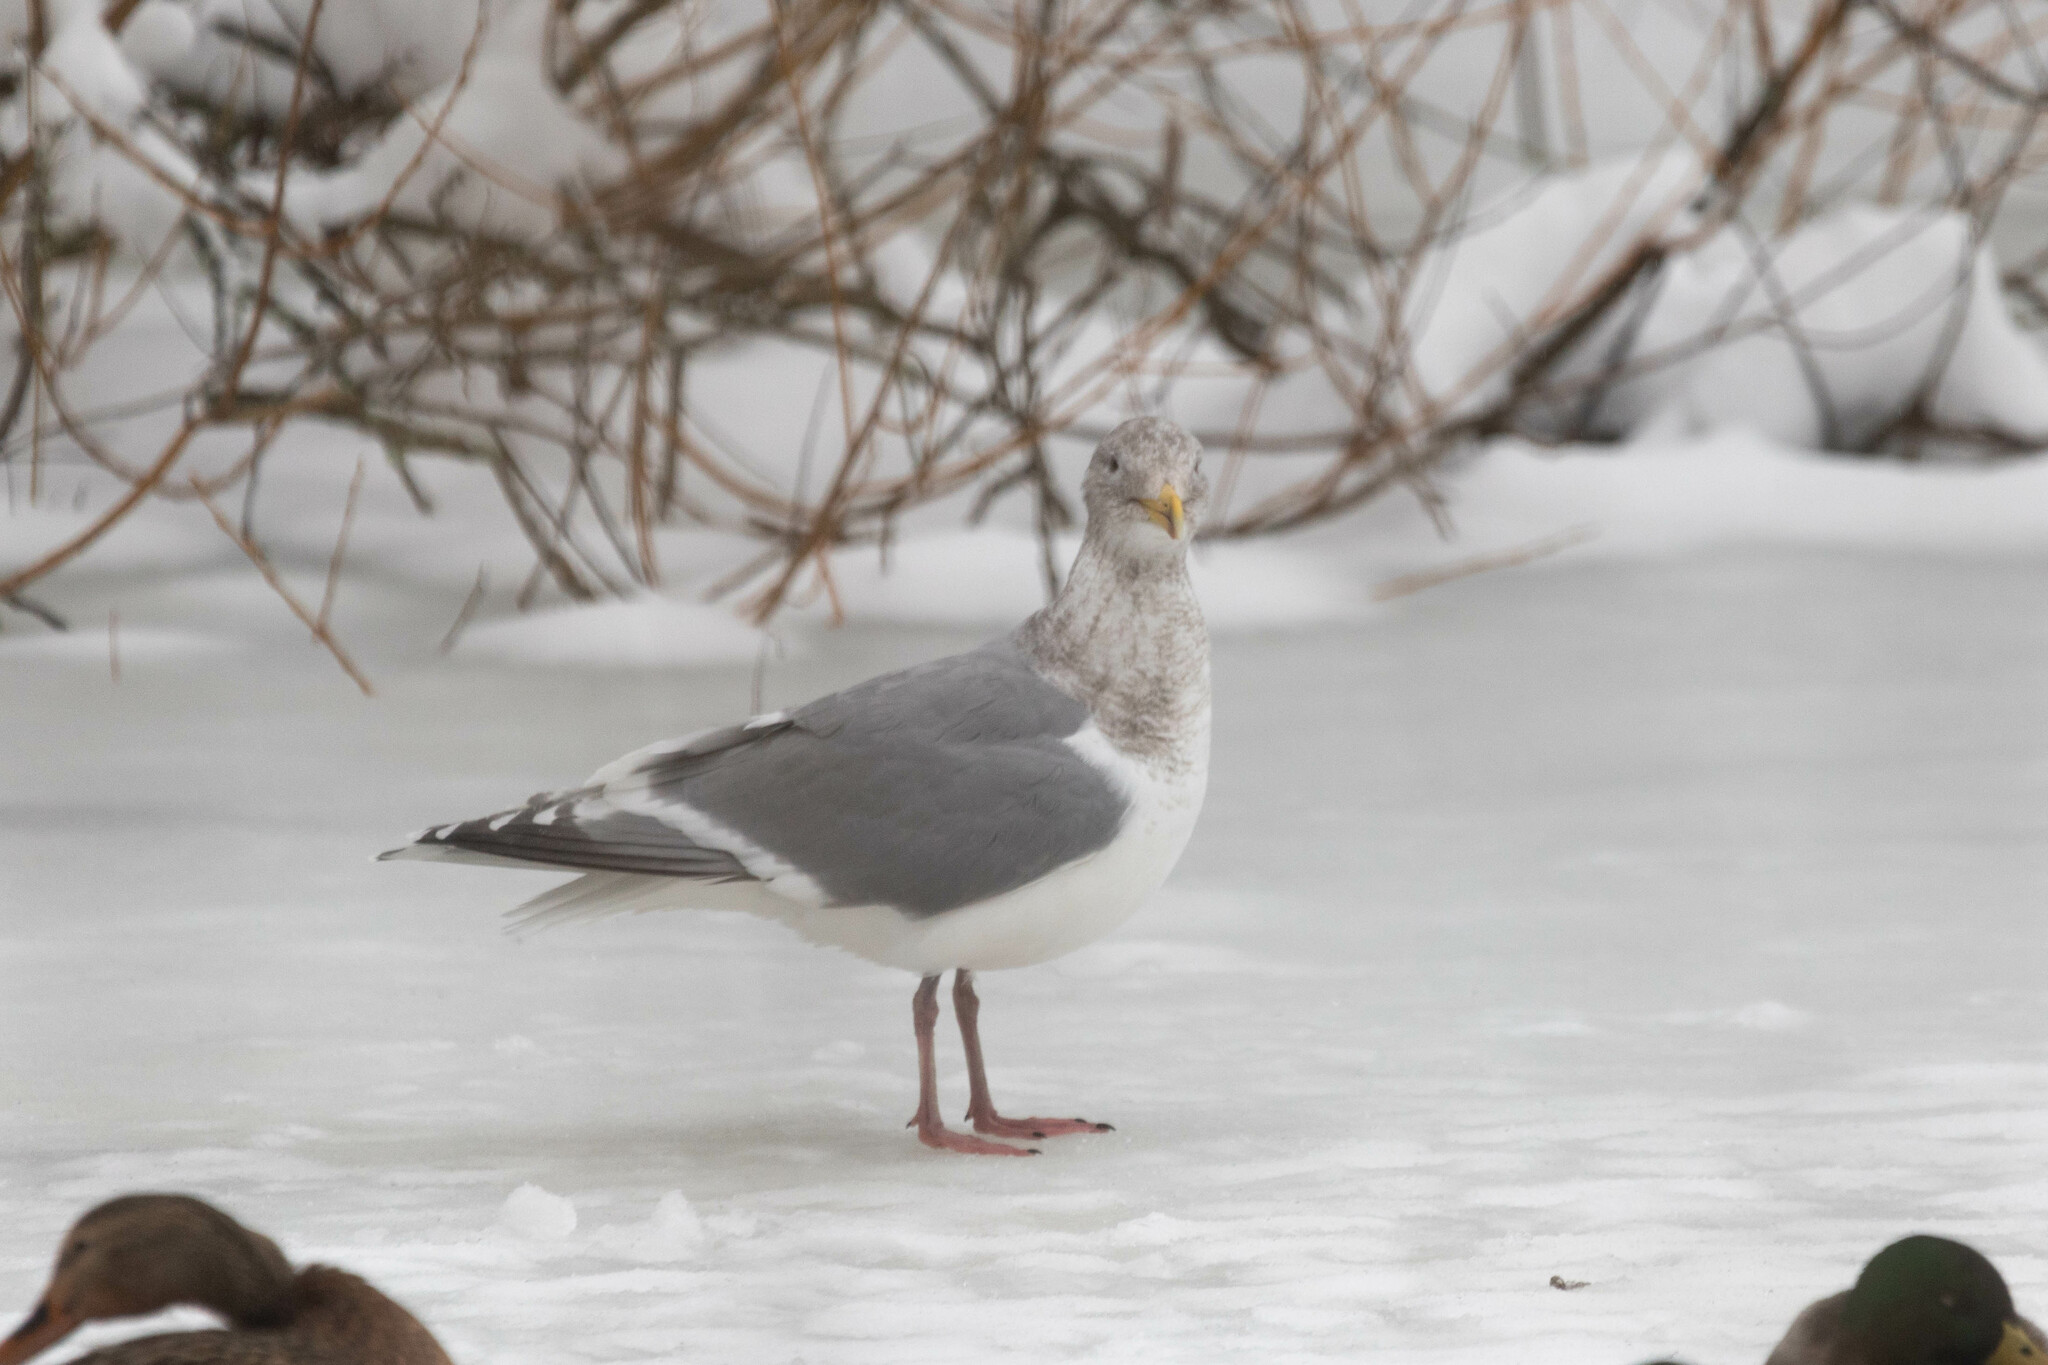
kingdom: Animalia
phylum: Chordata
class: Aves
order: Charadriiformes
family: Laridae
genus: Larus
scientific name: Larus
